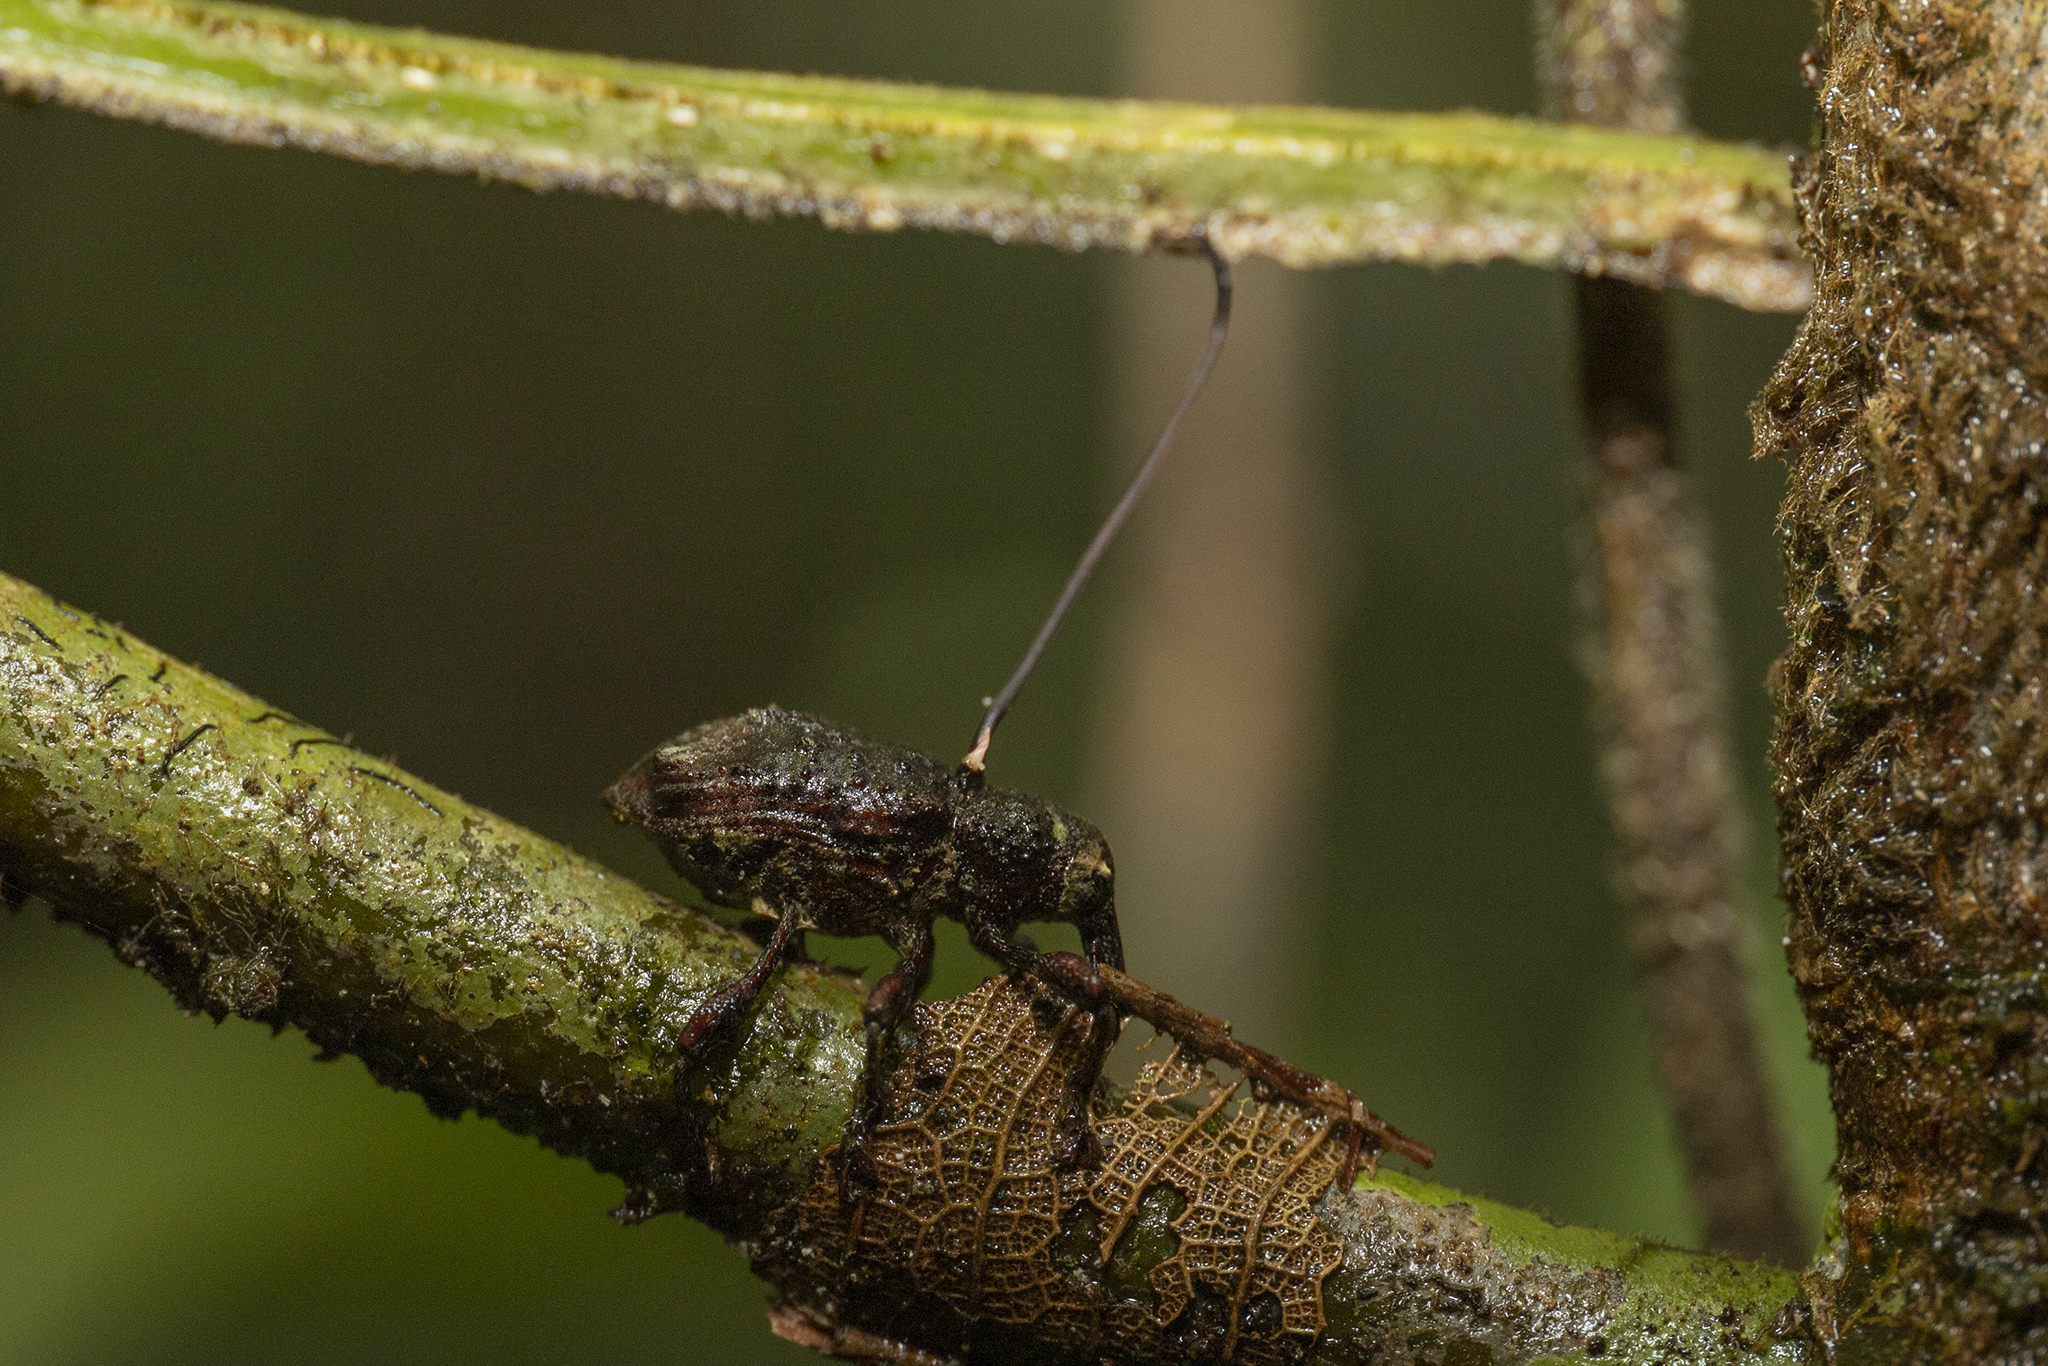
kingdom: Fungi
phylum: Ascomycota
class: Sordariomycetes
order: Hypocreales
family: Ophiocordycipitaceae
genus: Ophiocordyceps
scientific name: Ophiocordyceps curculionum
